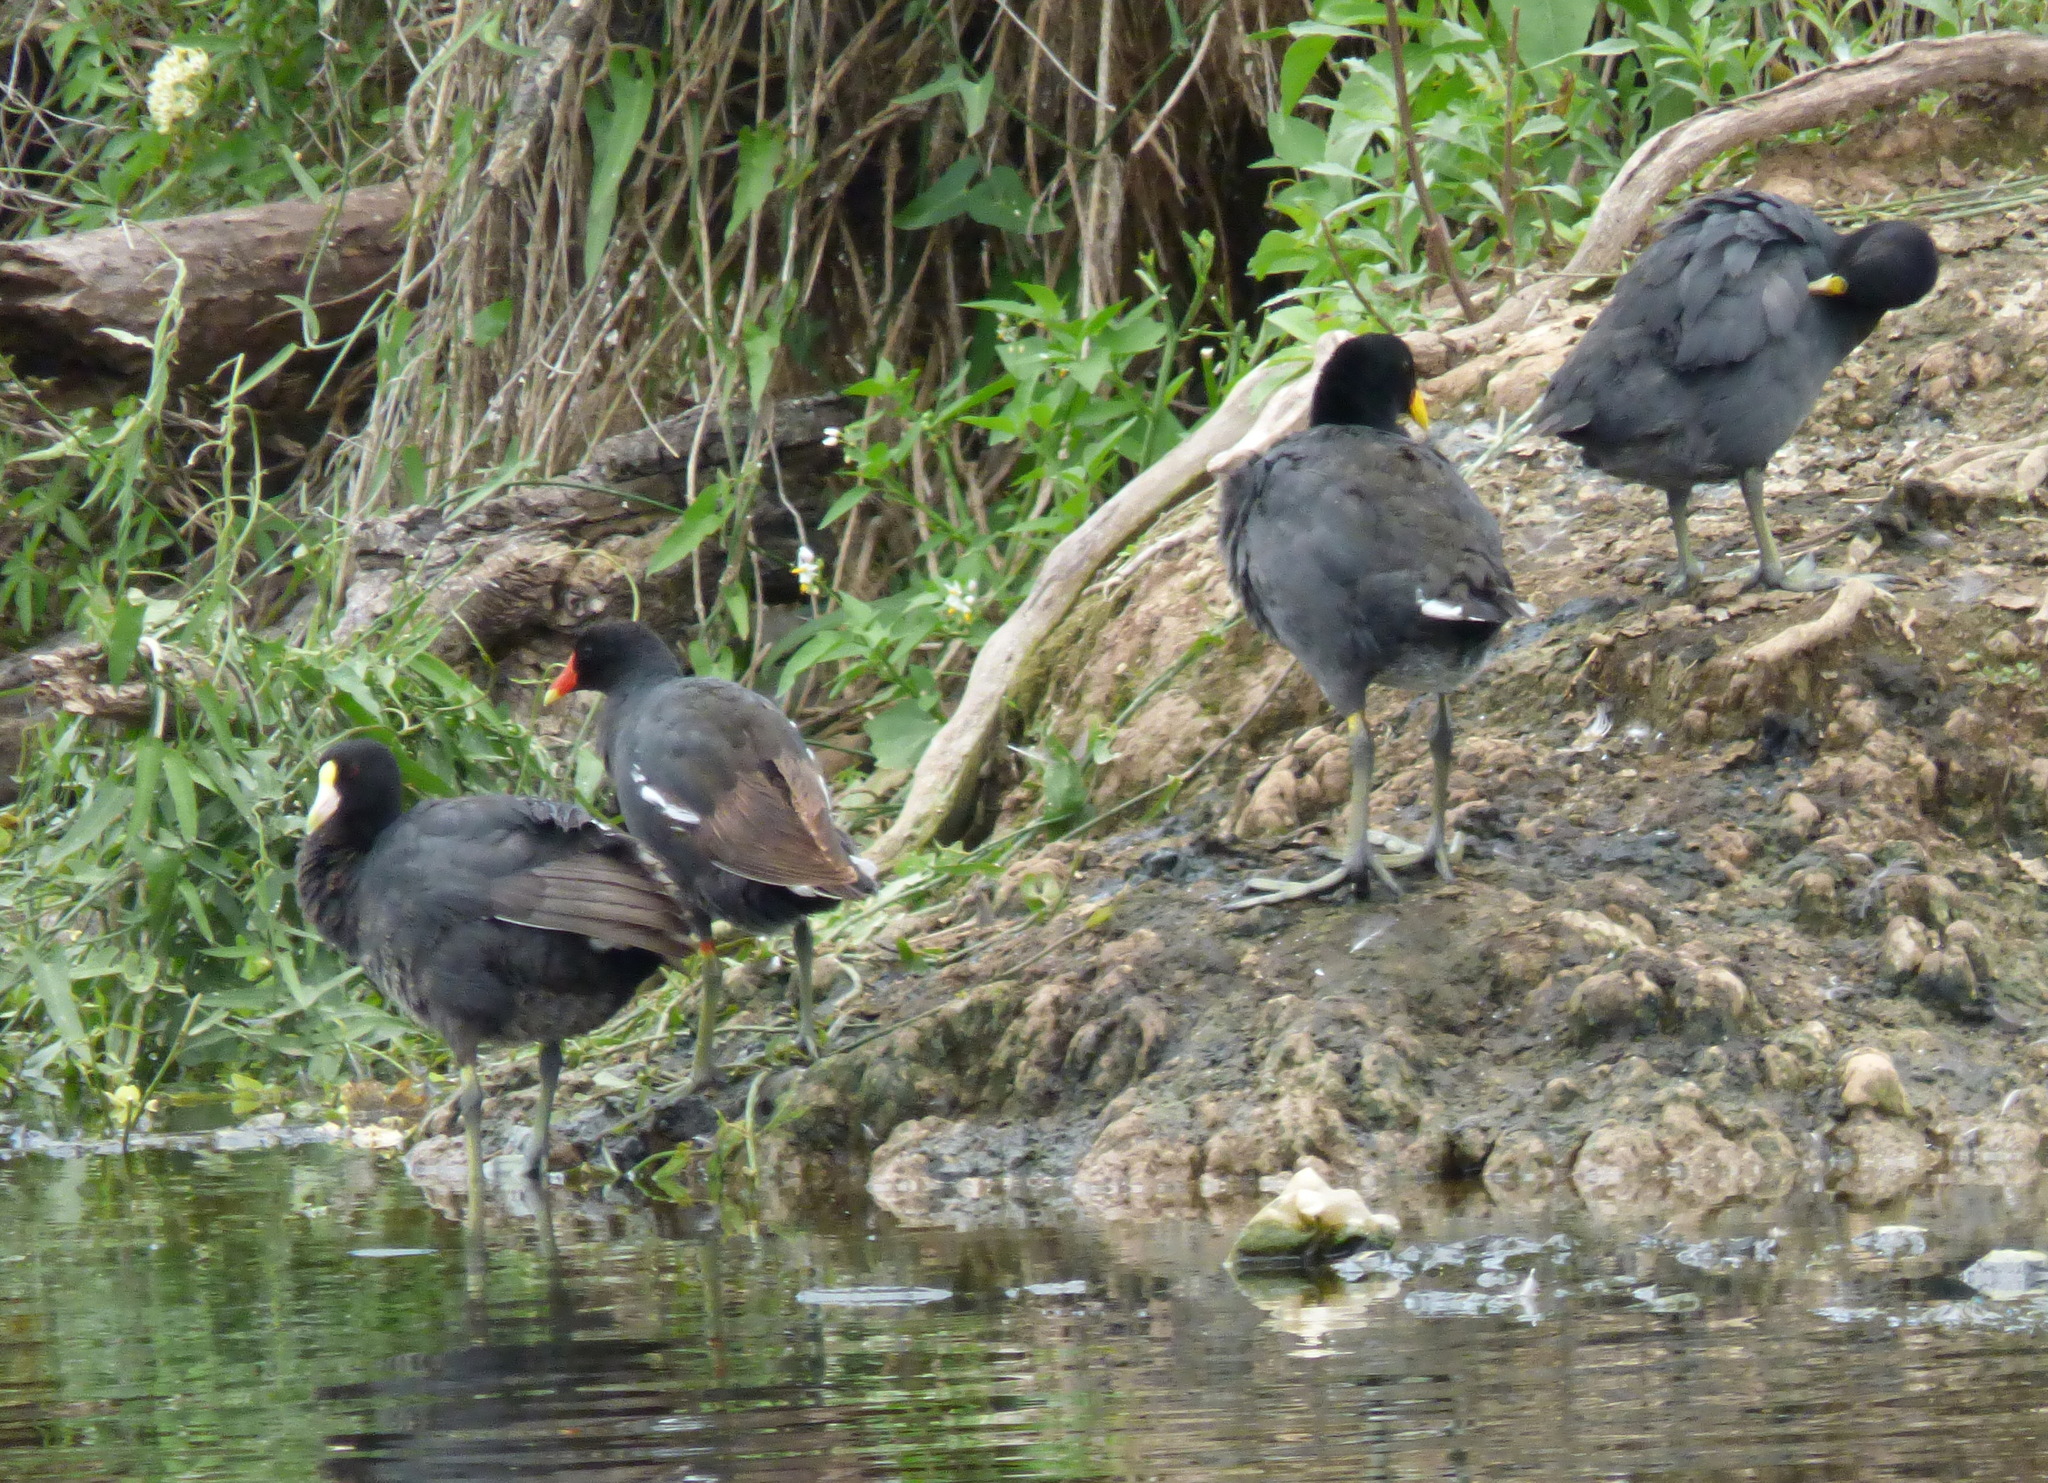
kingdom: Animalia
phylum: Chordata
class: Aves
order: Gruiformes
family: Rallidae
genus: Fulica
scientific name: Fulica leucoptera
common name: White-winged coot
